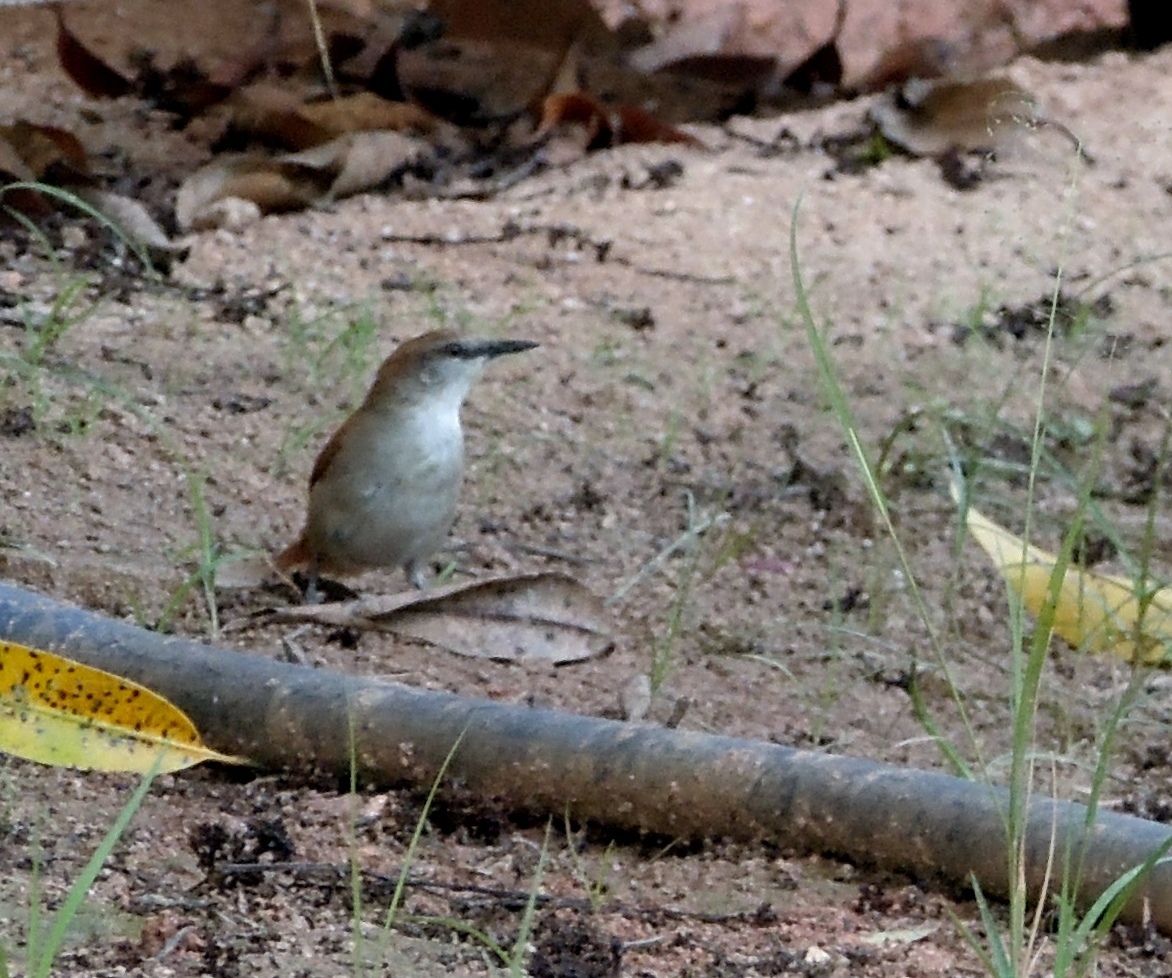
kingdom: Animalia
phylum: Chordata
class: Aves
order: Passeriformes
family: Furnariidae
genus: Certhiaxis
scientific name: Certhiaxis cinnamomeus
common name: Yellow-chinned spinetail
